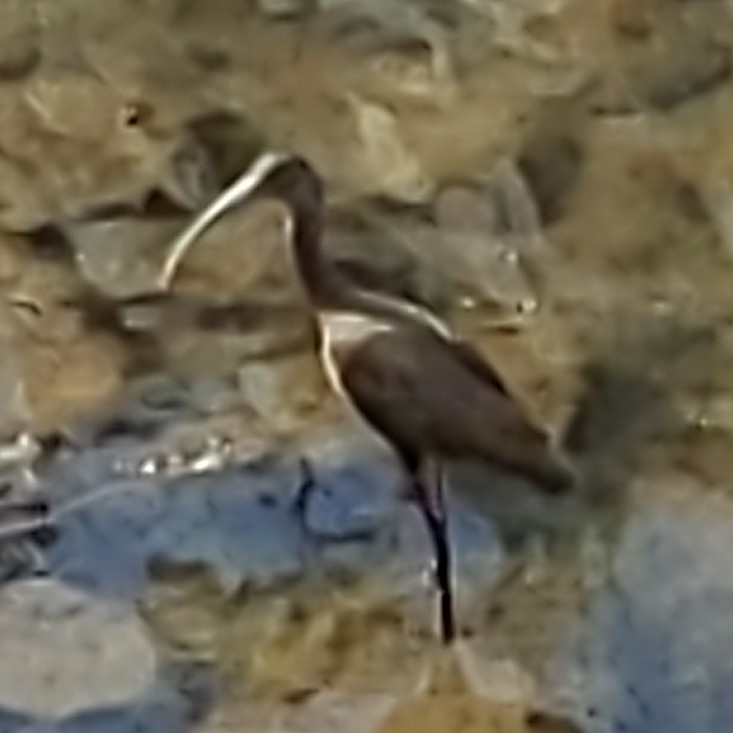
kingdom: Animalia
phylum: Chordata
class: Aves
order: Pelecaniformes
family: Threskiornithidae
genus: Plegadis
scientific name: Plegadis chihi
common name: White-faced ibis
